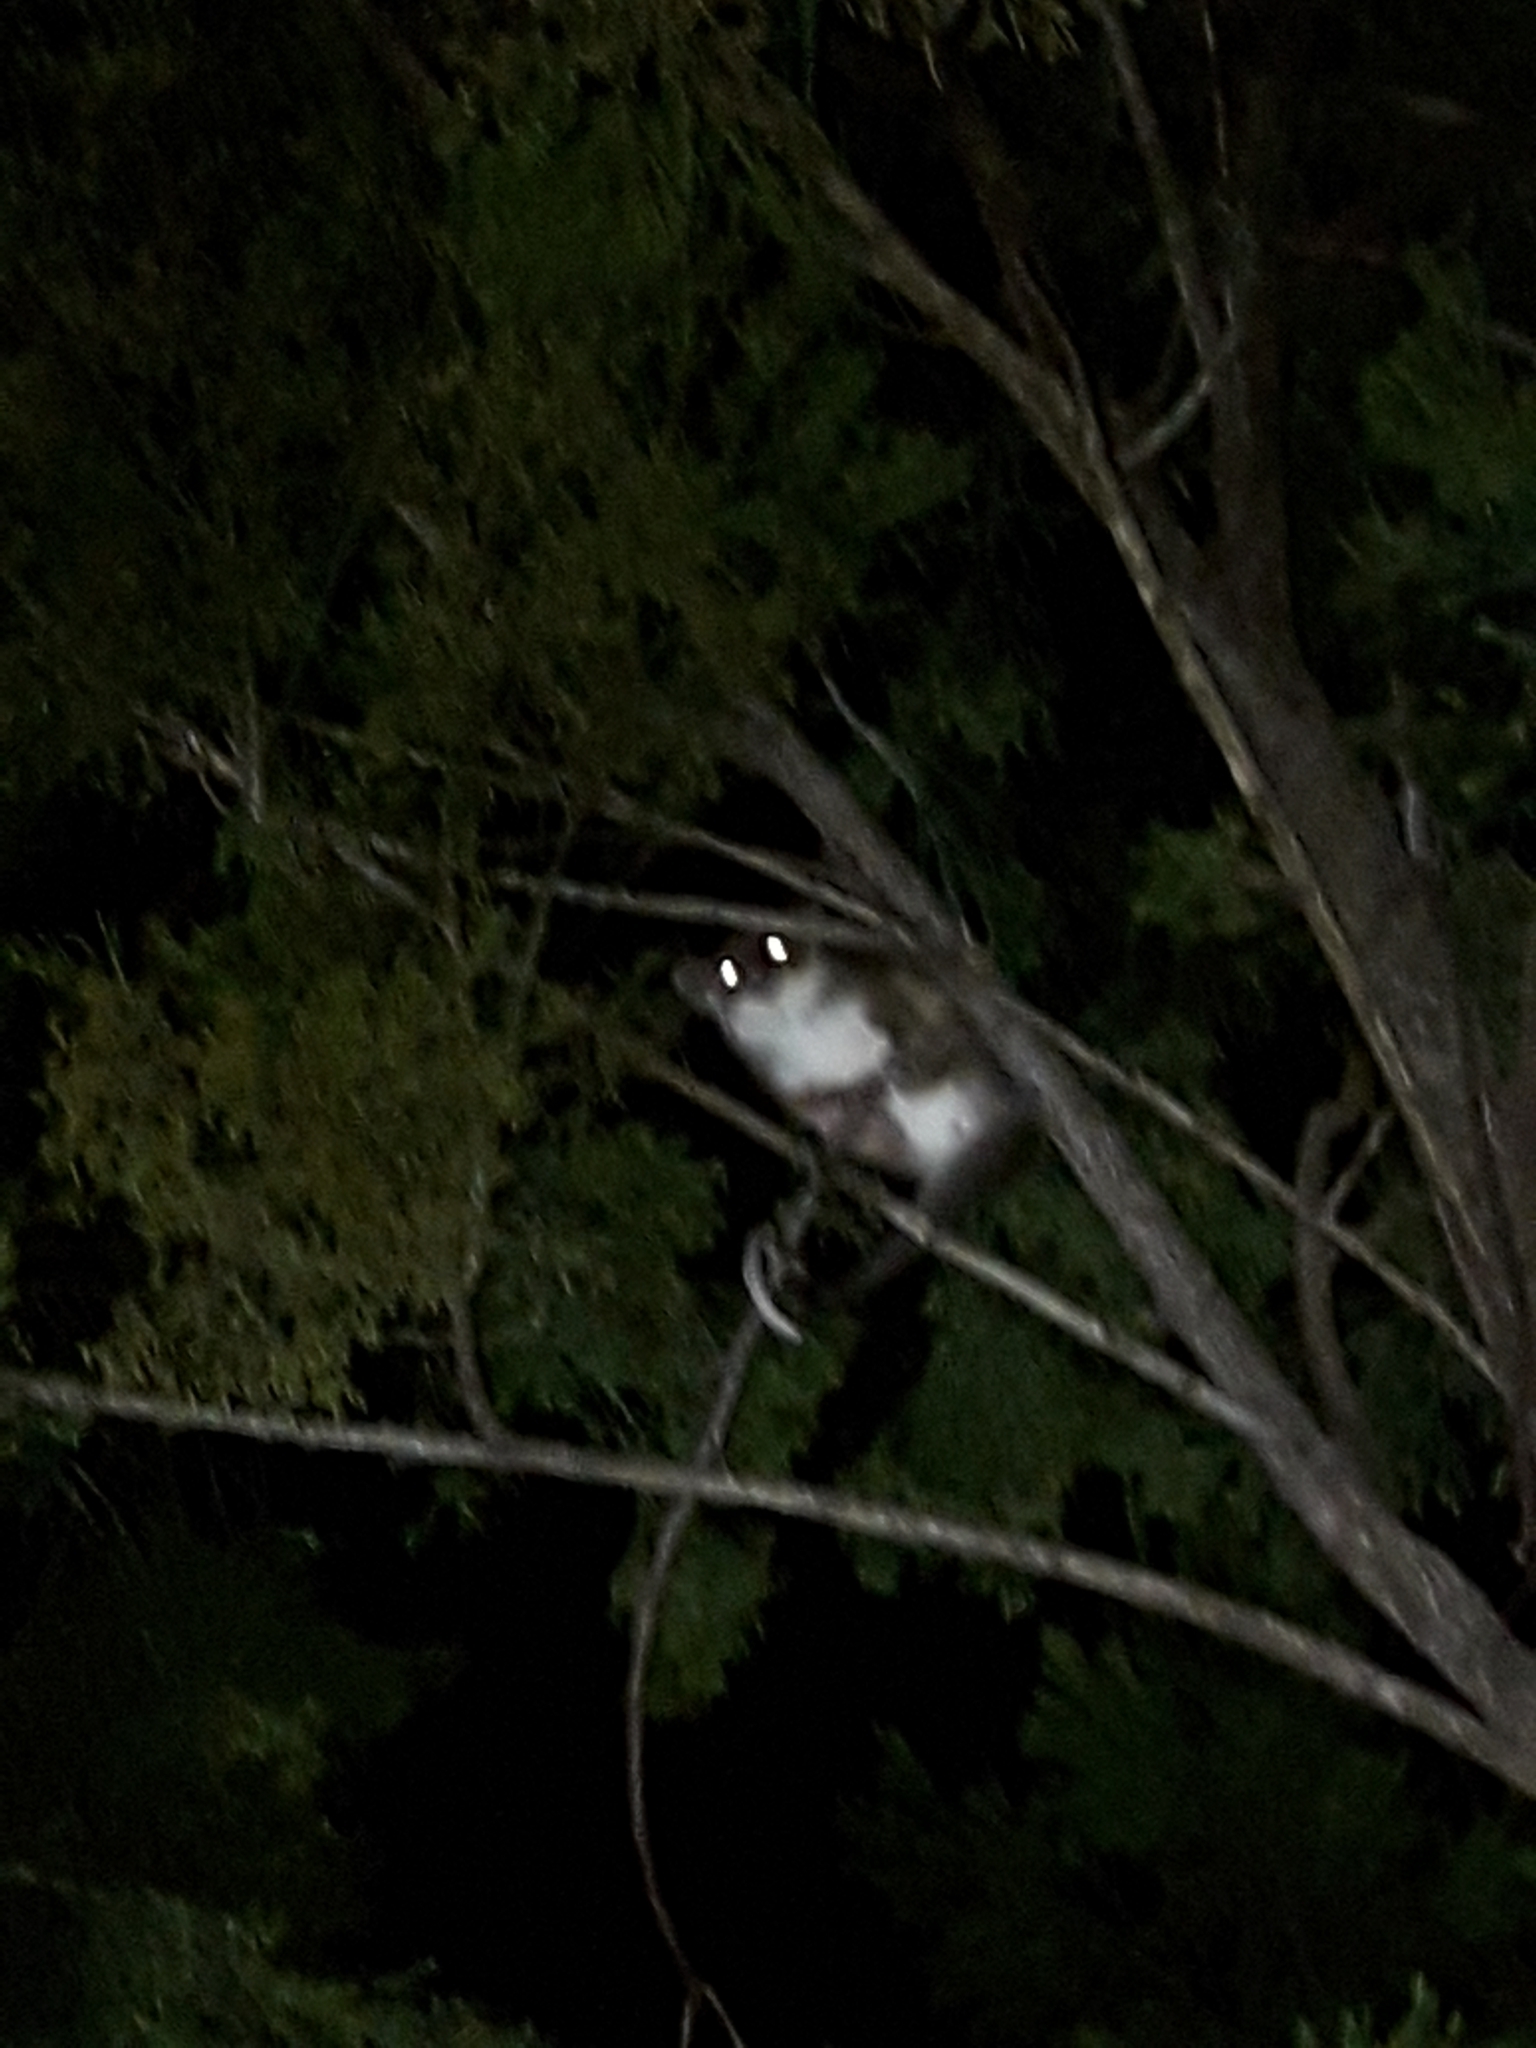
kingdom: Animalia
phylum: Chordata
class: Mammalia
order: Diprotodontia
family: Pseudocheiridae
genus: Pseudocheirus
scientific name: Pseudocheirus peregrinus
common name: Common ringtail possum
